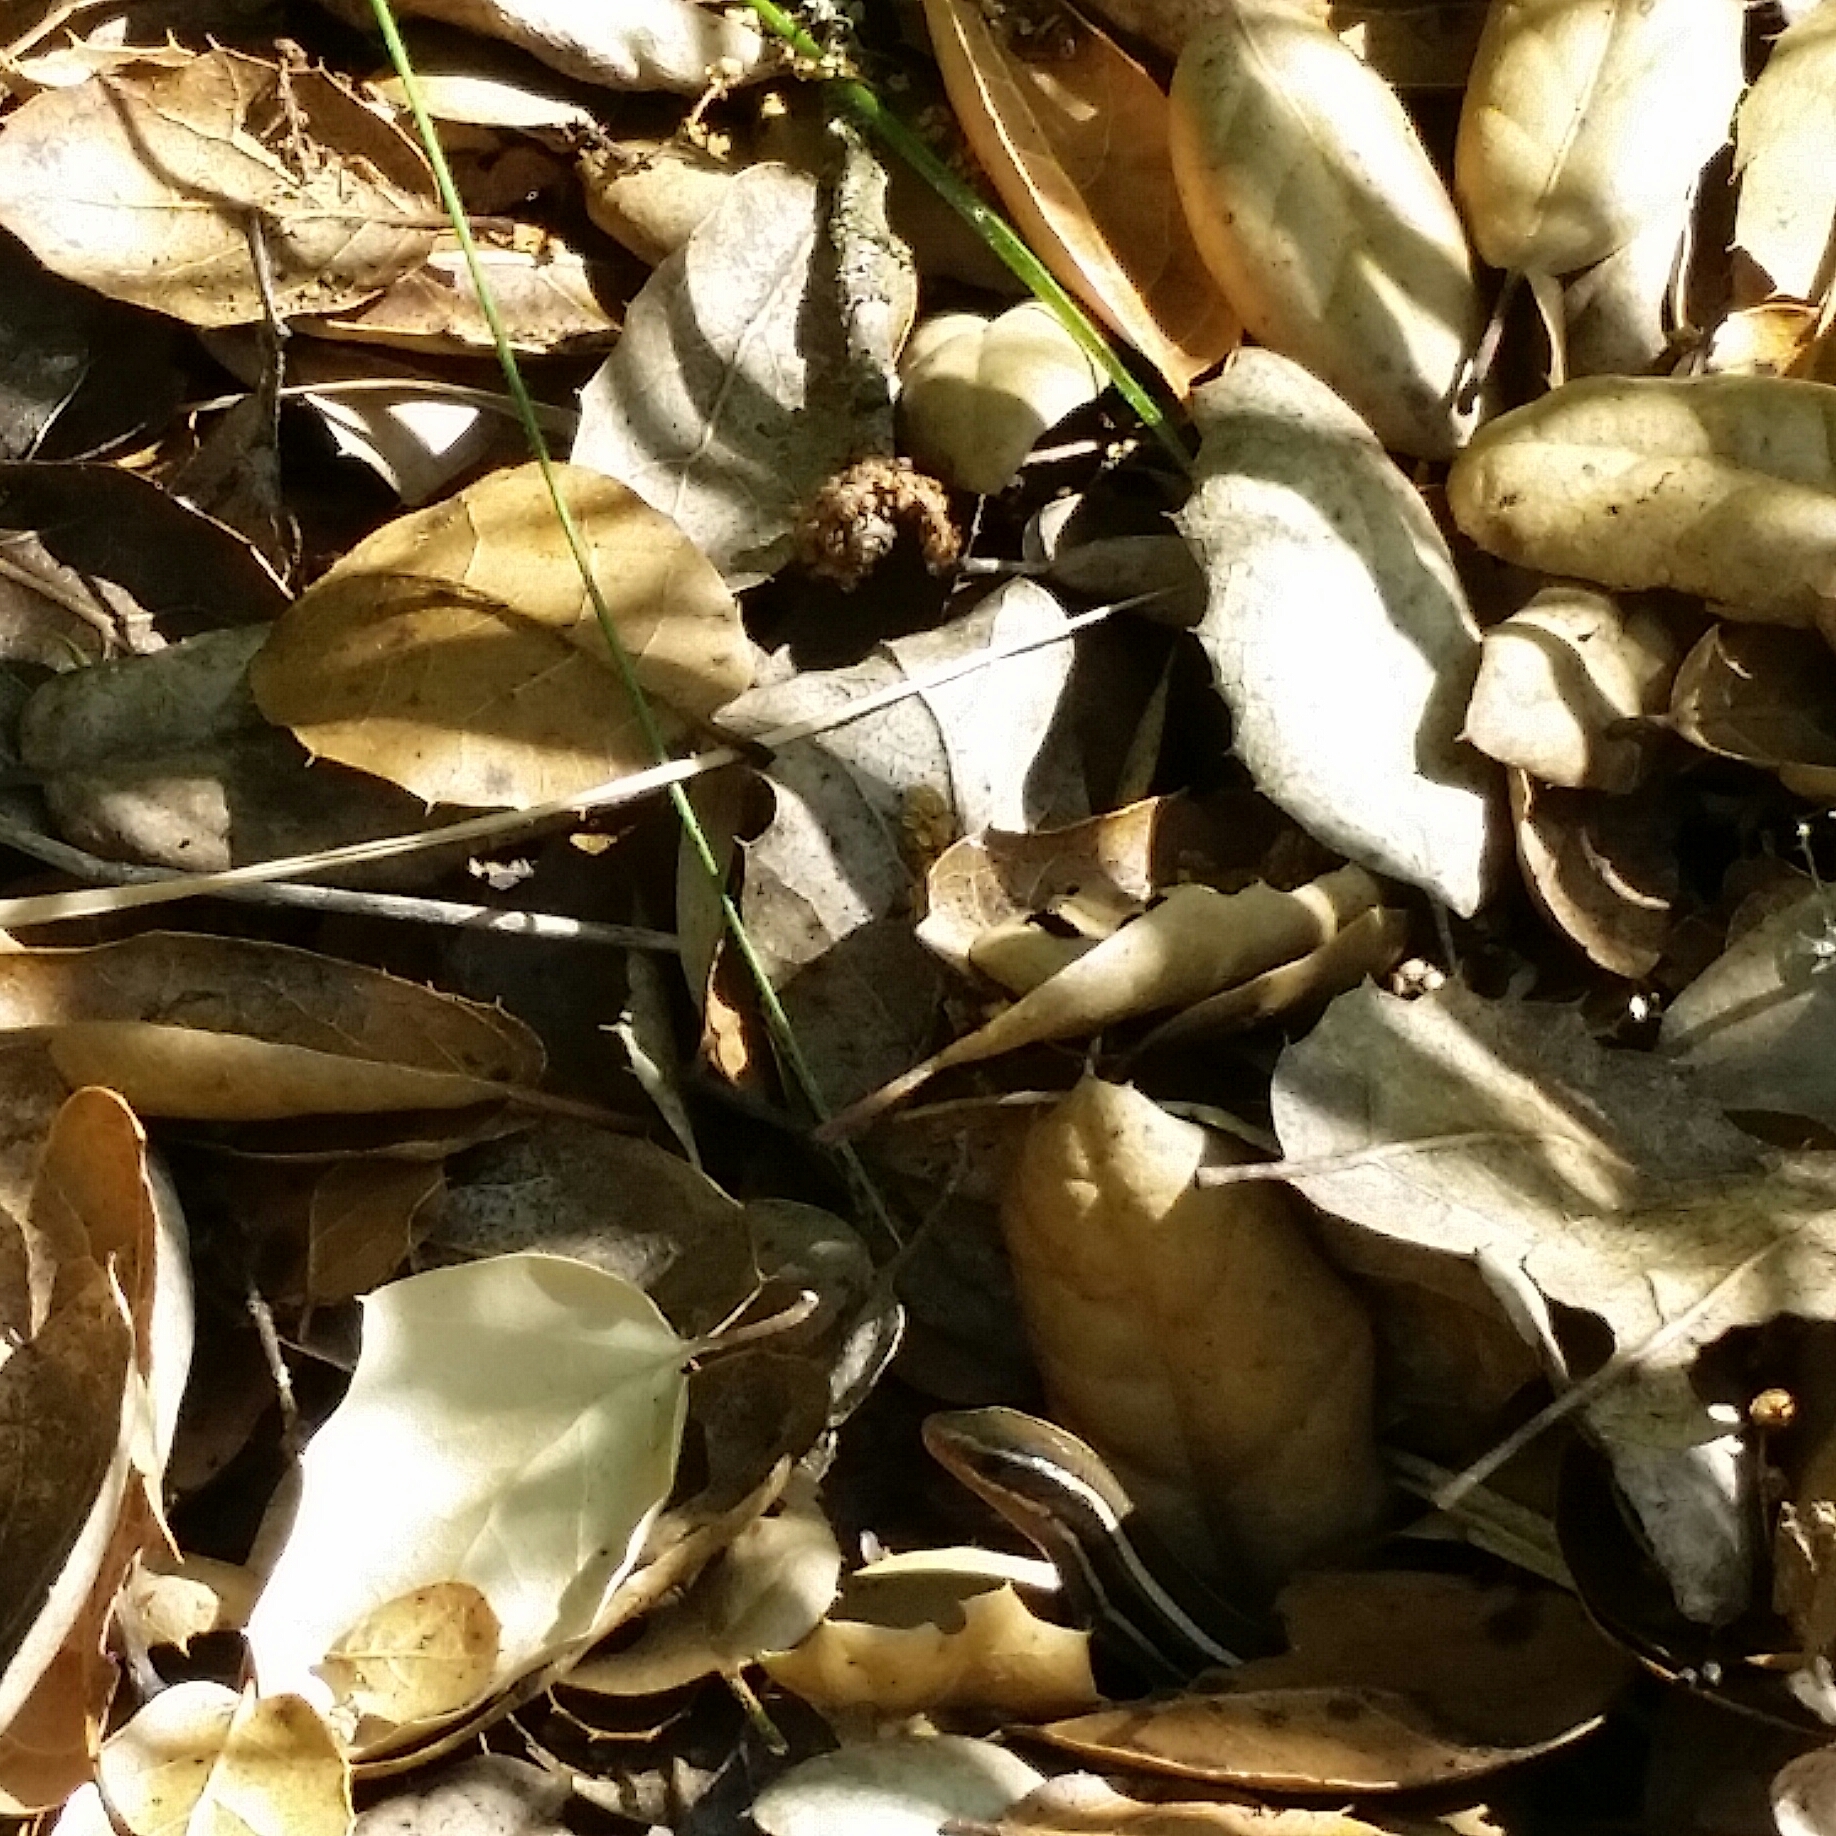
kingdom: Animalia
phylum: Chordata
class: Squamata
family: Scincidae
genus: Plestiodon
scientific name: Plestiodon skiltonianus
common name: Coronado island skink [interparietalis]
